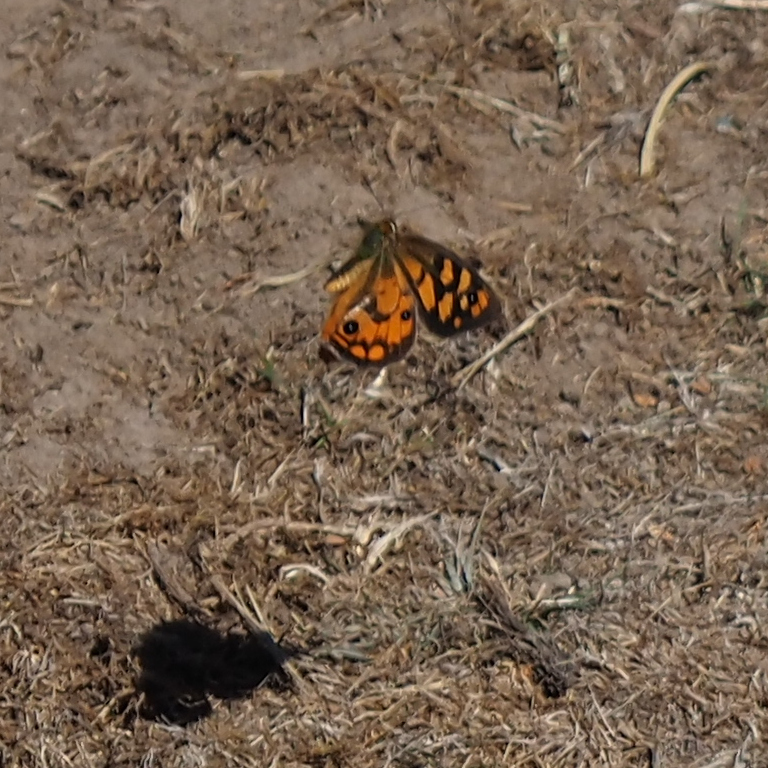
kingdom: Animalia
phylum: Arthropoda
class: Insecta
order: Lepidoptera
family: Nymphalidae
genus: Heteronympha
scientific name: Heteronympha penelope
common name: Shouldered brown
